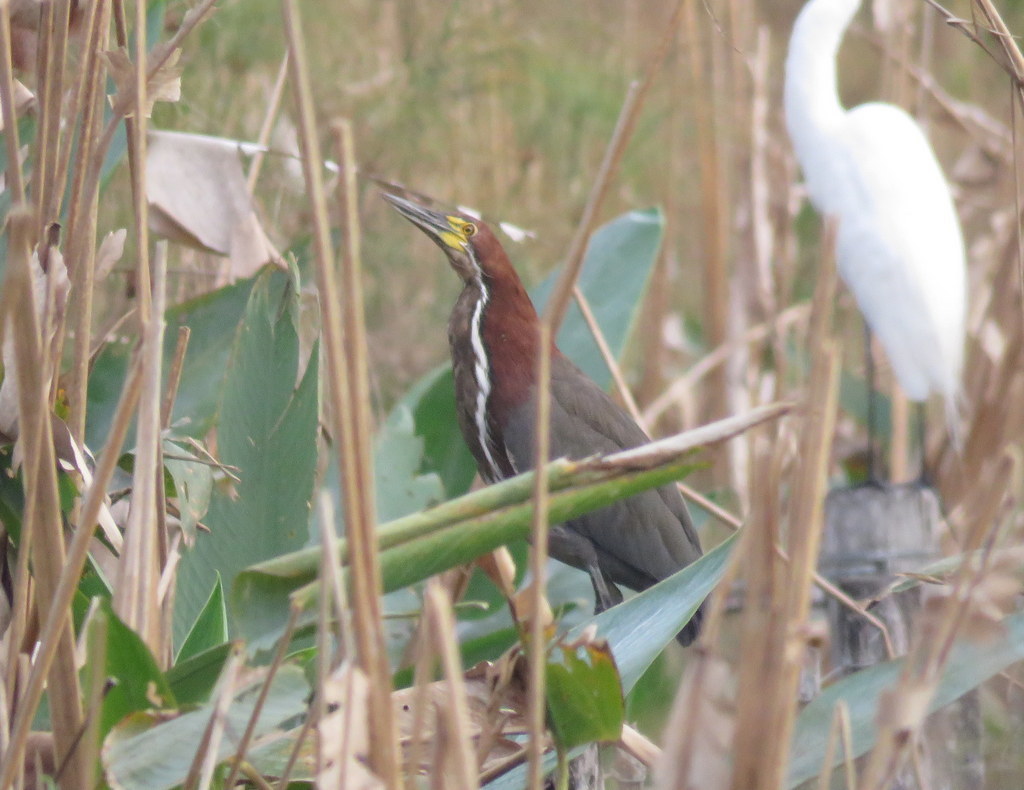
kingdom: Animalia
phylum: Chordata
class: Aves
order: Pelecaniformes
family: Ardeidae
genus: Tigrisoma
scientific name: Tigrisoma lineatum
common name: Rufescent tiger-heron
